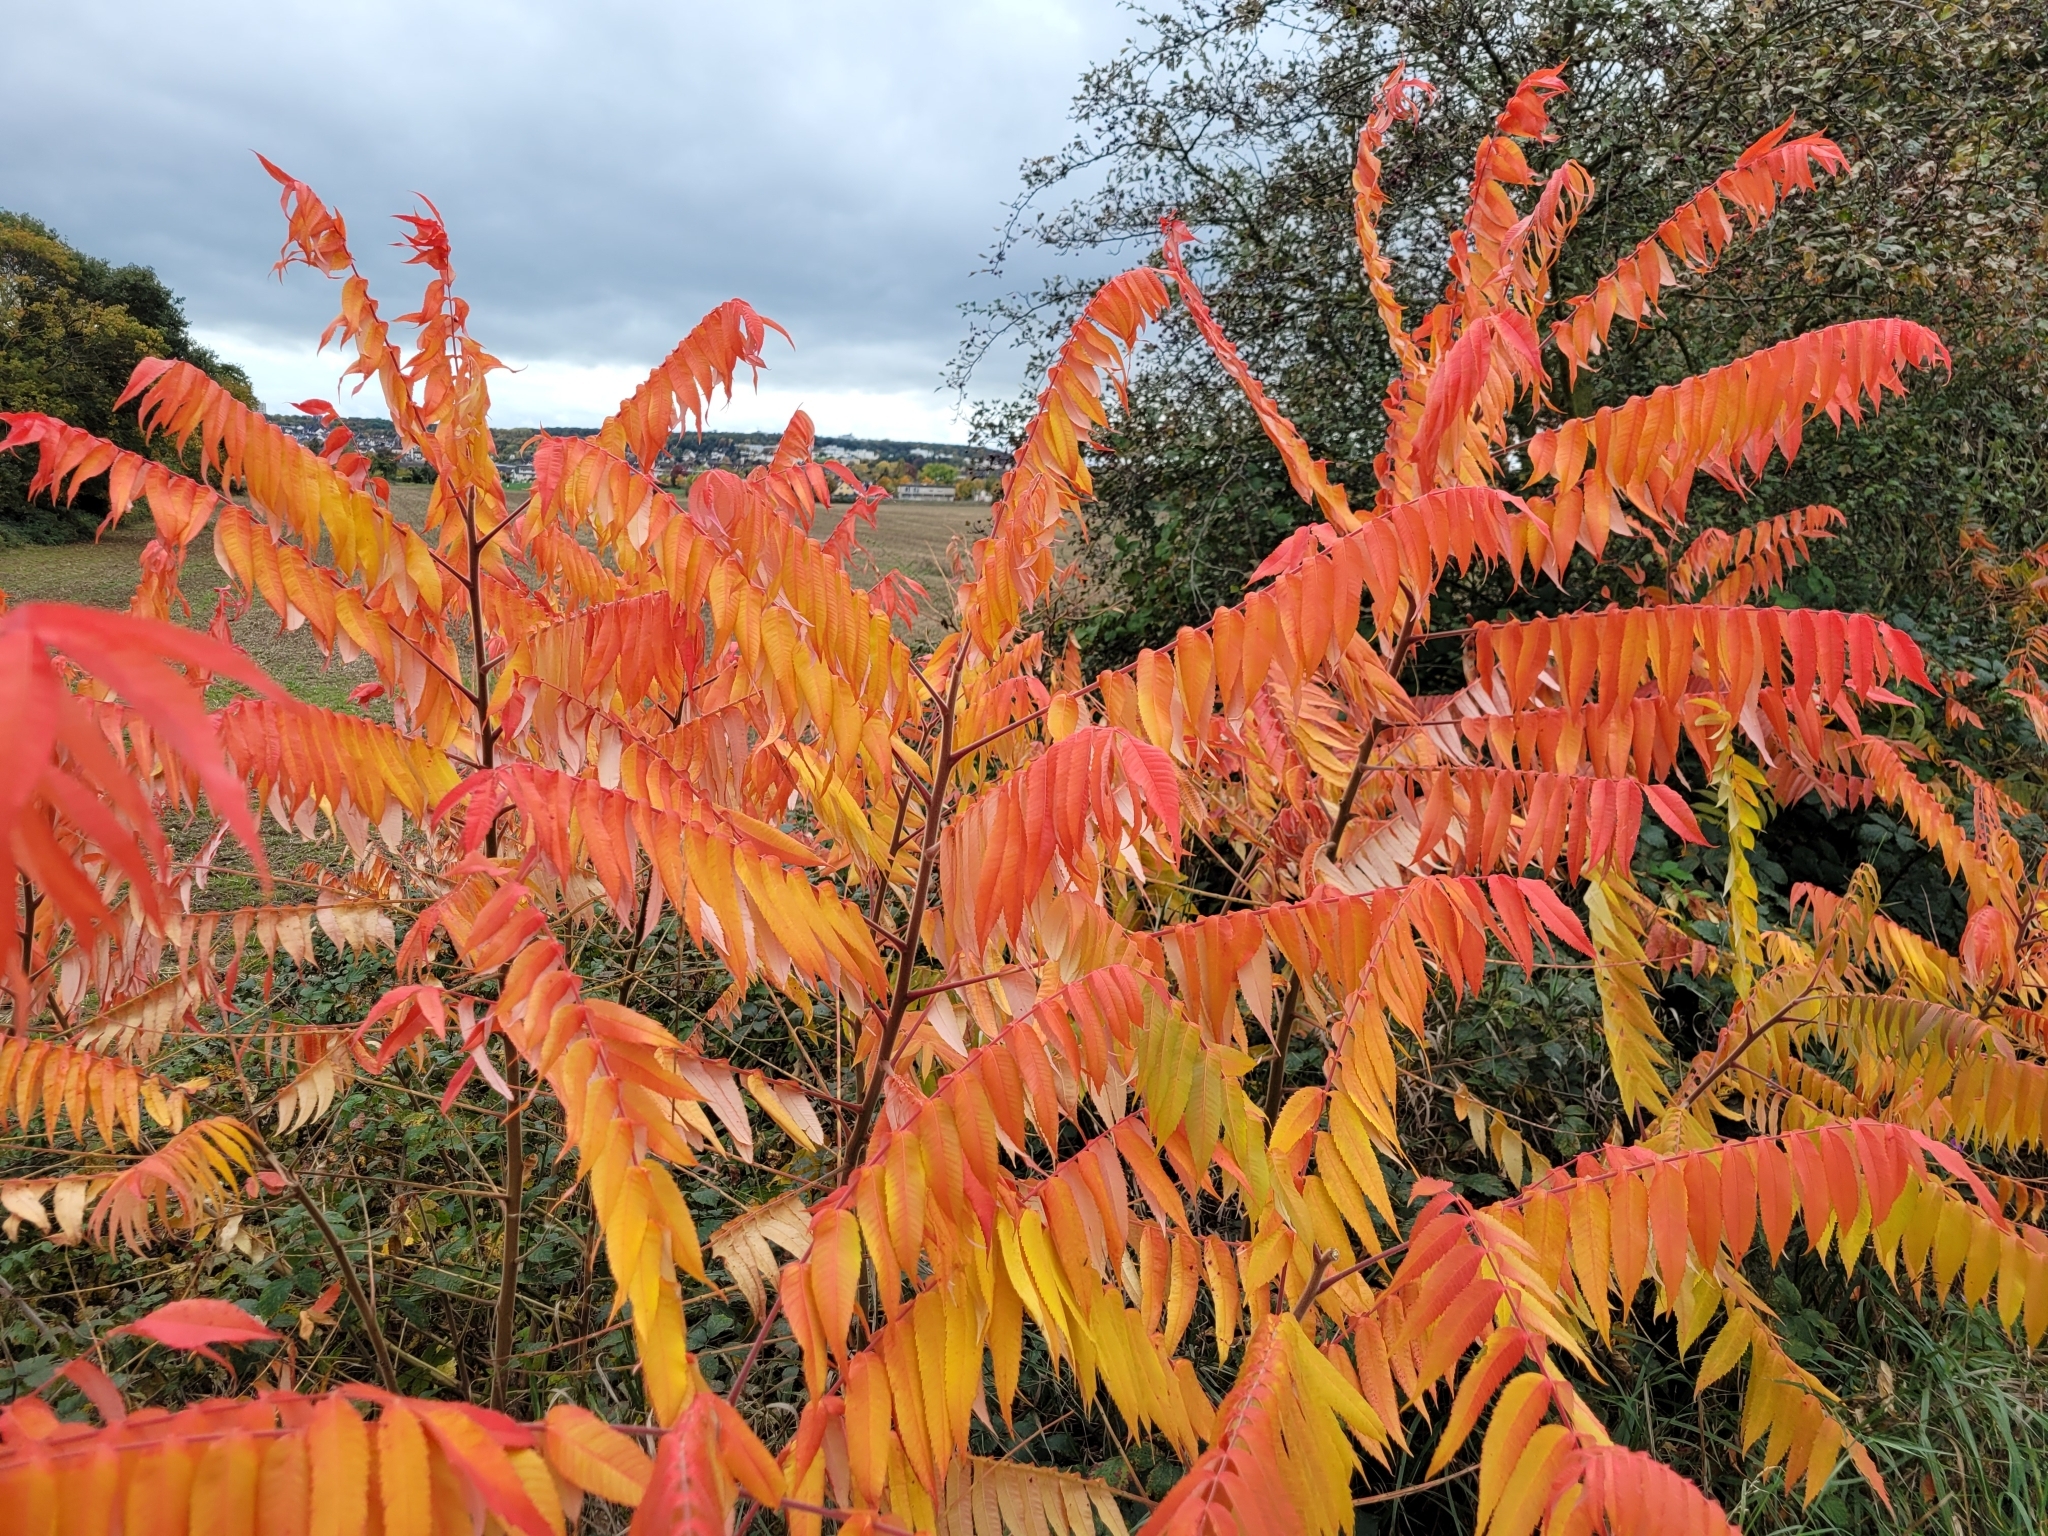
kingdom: Plantae
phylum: Tracheophyta
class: Magnoliopsida
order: Sapindales
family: Anacardiaceae
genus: Rhus
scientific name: Rhus typhina
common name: Staghorn sumac
